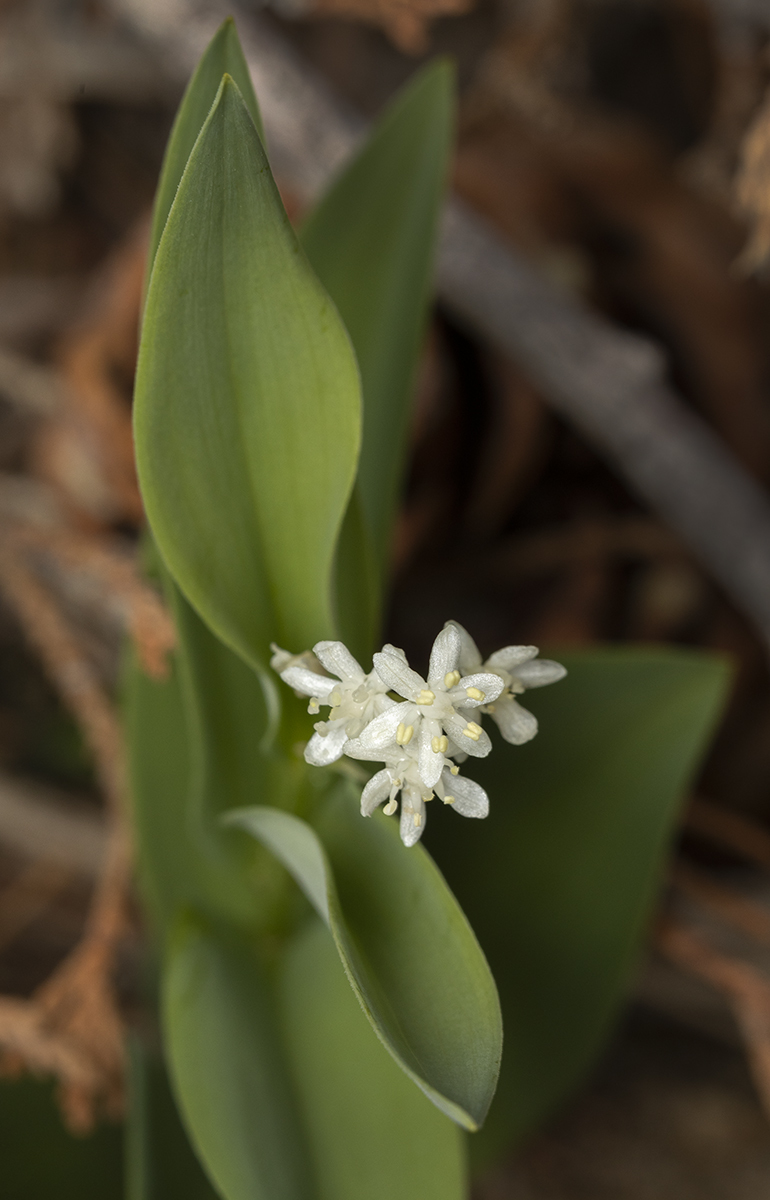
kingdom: Plantae
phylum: Tracheophyta
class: Liliopsida
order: Asparagales
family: Asparagaceae
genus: Maianthemum
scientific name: Maianthemum stellatum
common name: Little false solomon's seal
